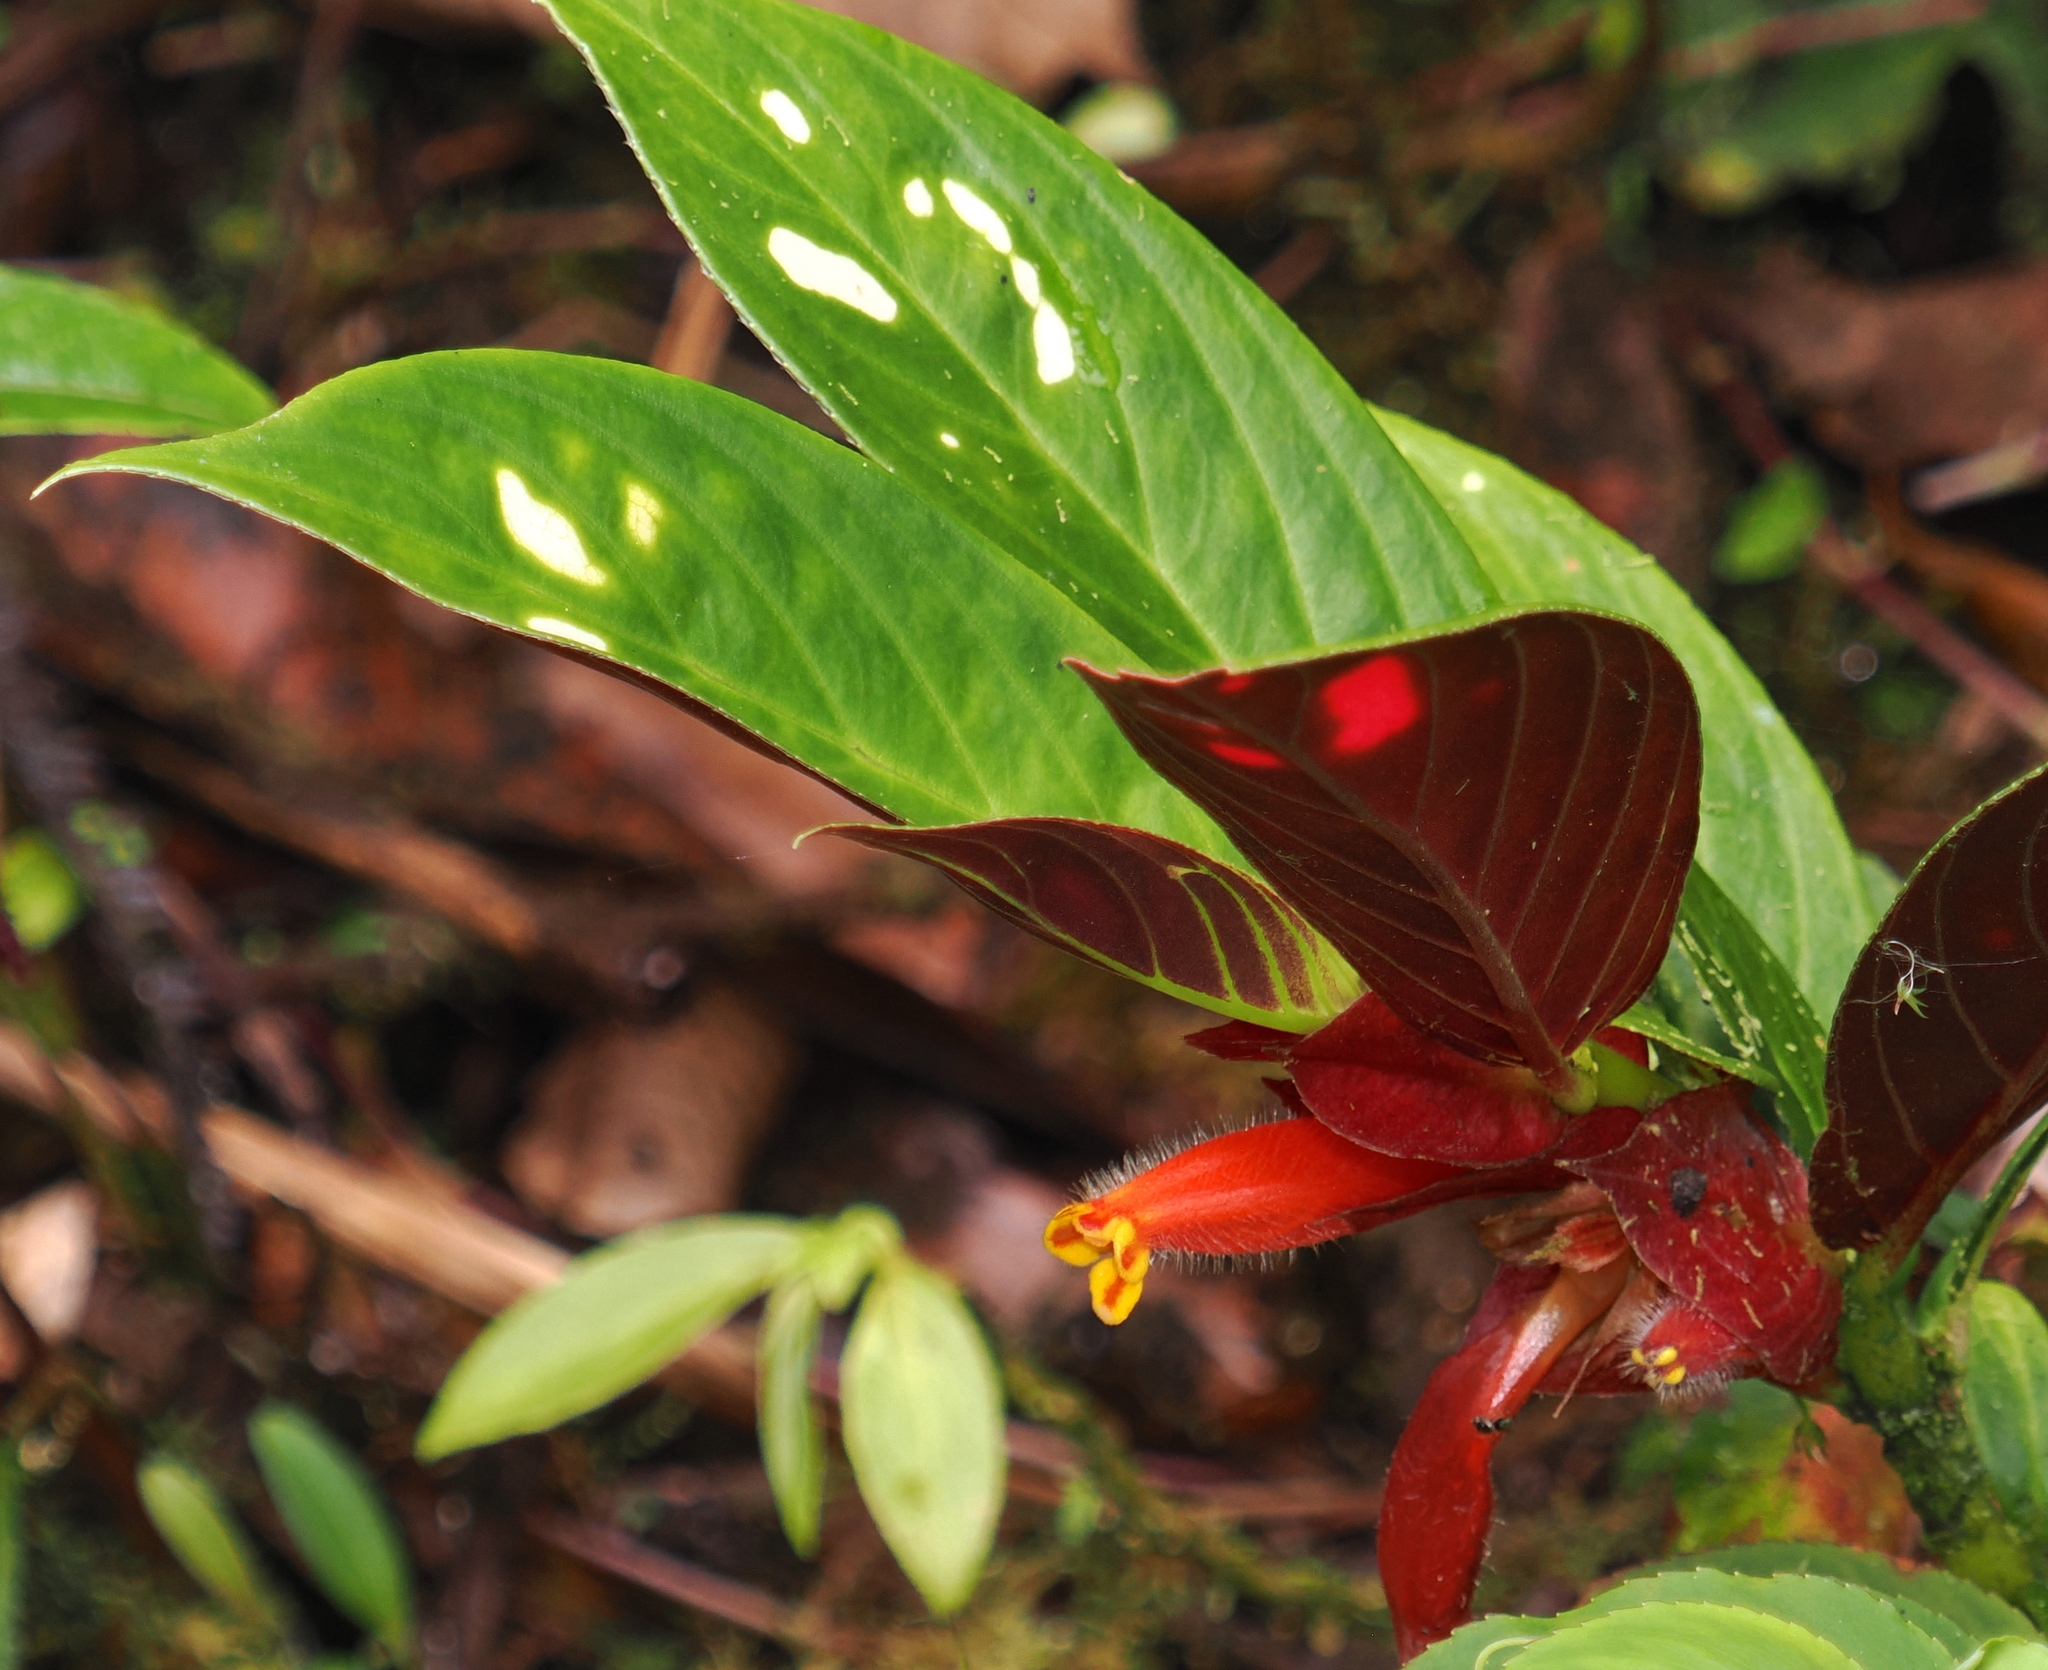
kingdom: Plantae
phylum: Tracheophyta
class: Magnoliopsida
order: Lamiales
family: Gesneriaceae
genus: Columnea
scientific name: Columnea dimidiata
